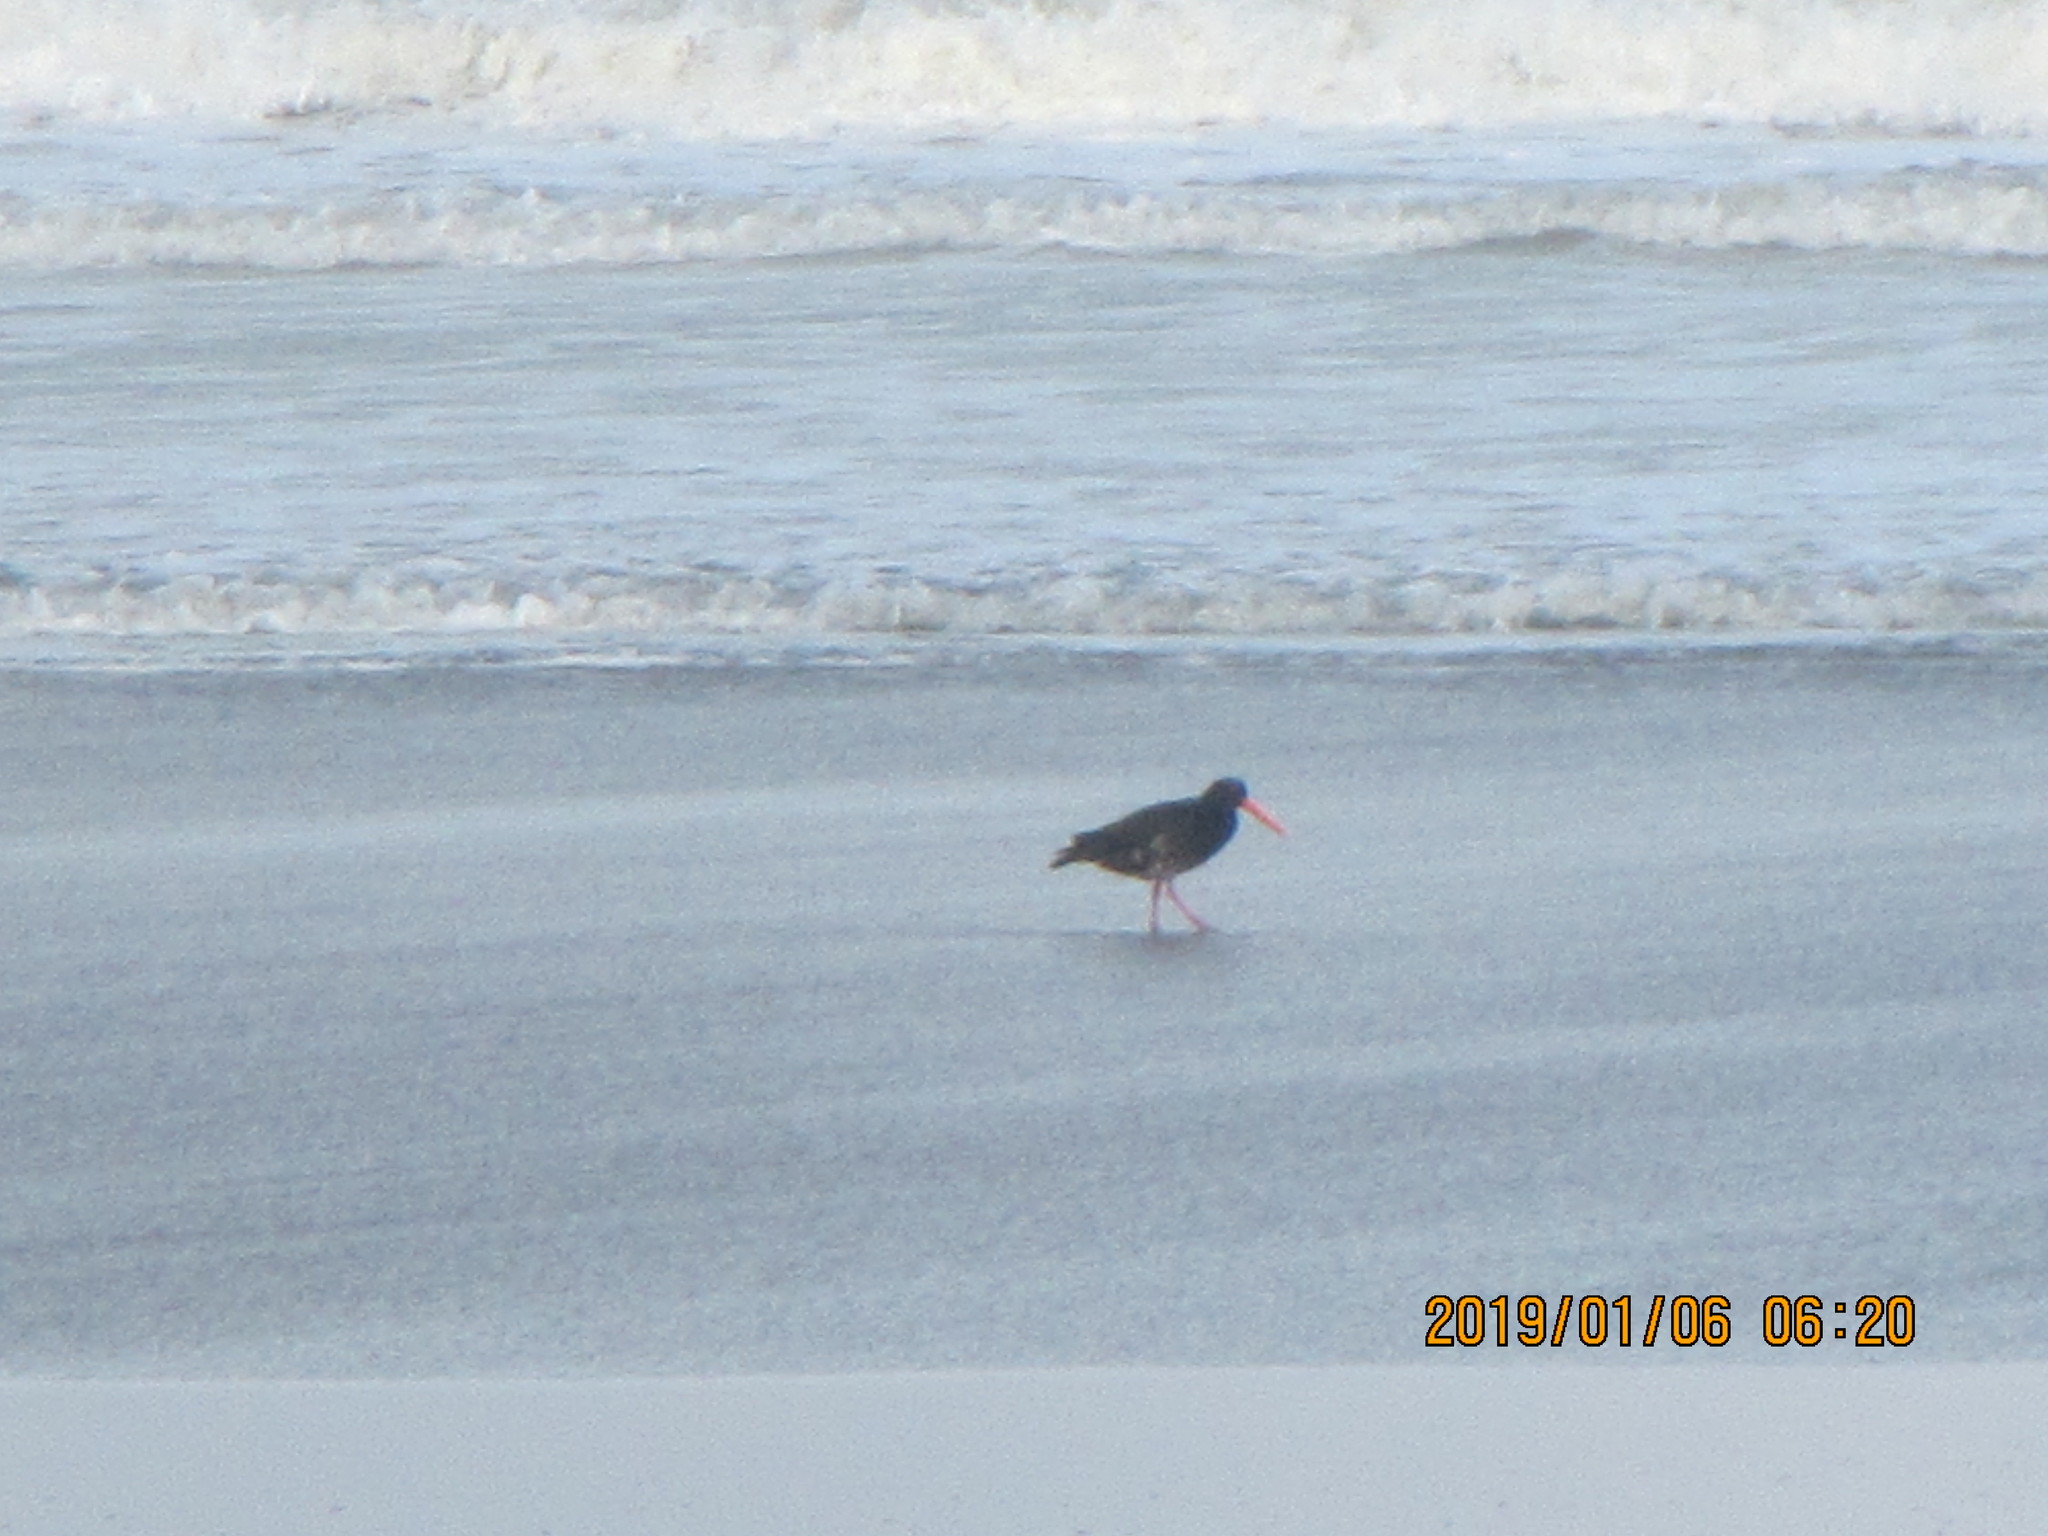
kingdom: Animalia
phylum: Chordata
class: Aves
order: Charadriiformes
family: Haematopodidae
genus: Haematopus
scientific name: Haematopus unicolor
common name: Variable oystercatcher
